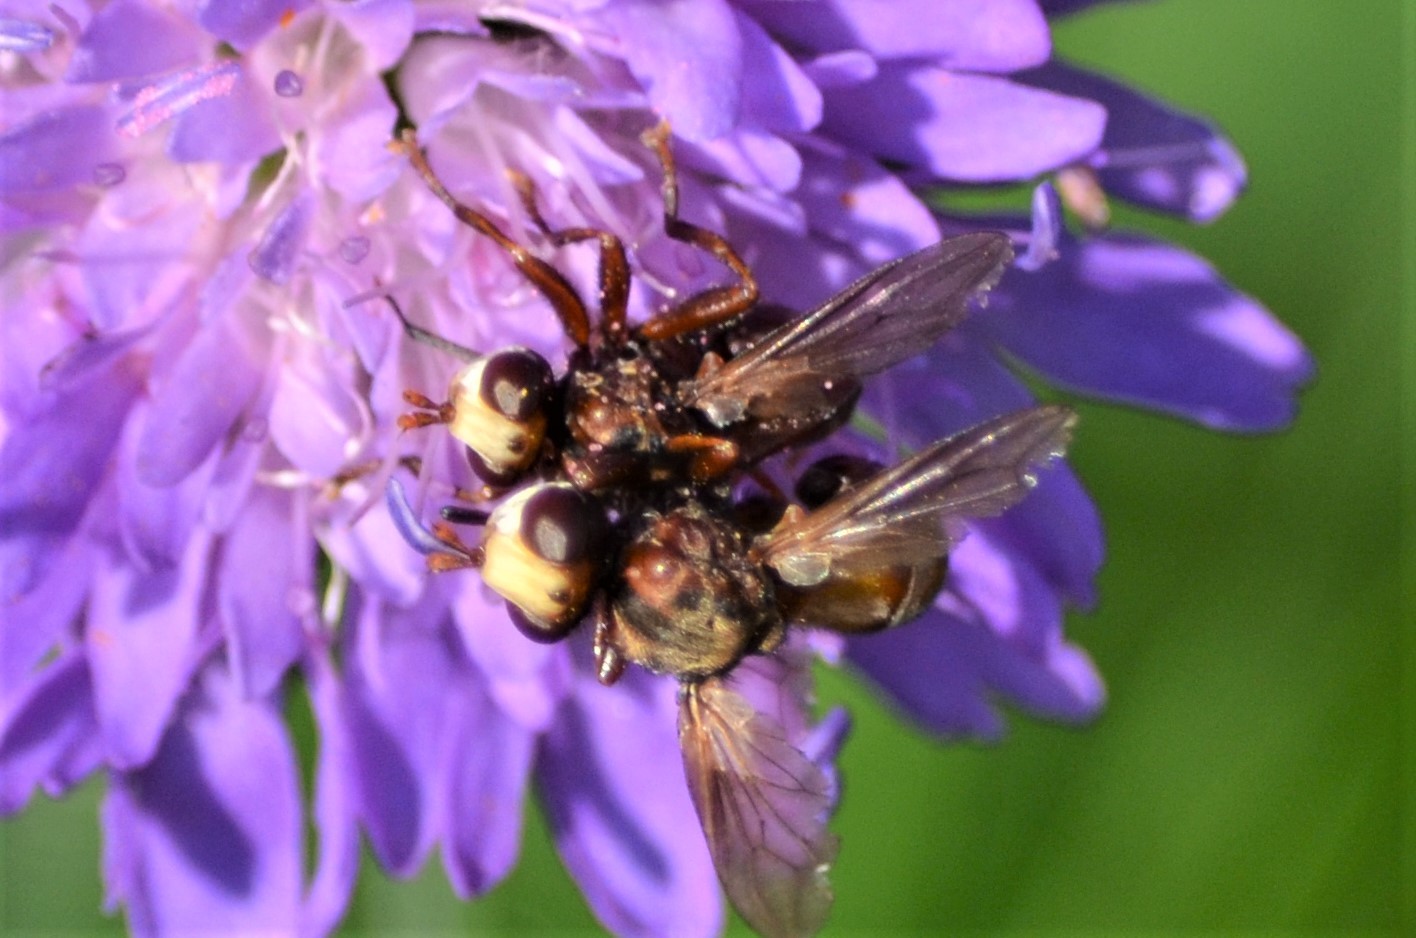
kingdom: Animalia
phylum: Arthropoda
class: Insecta
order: Diptera
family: Conopidae
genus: Sicus
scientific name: Sicus ferrugineus
